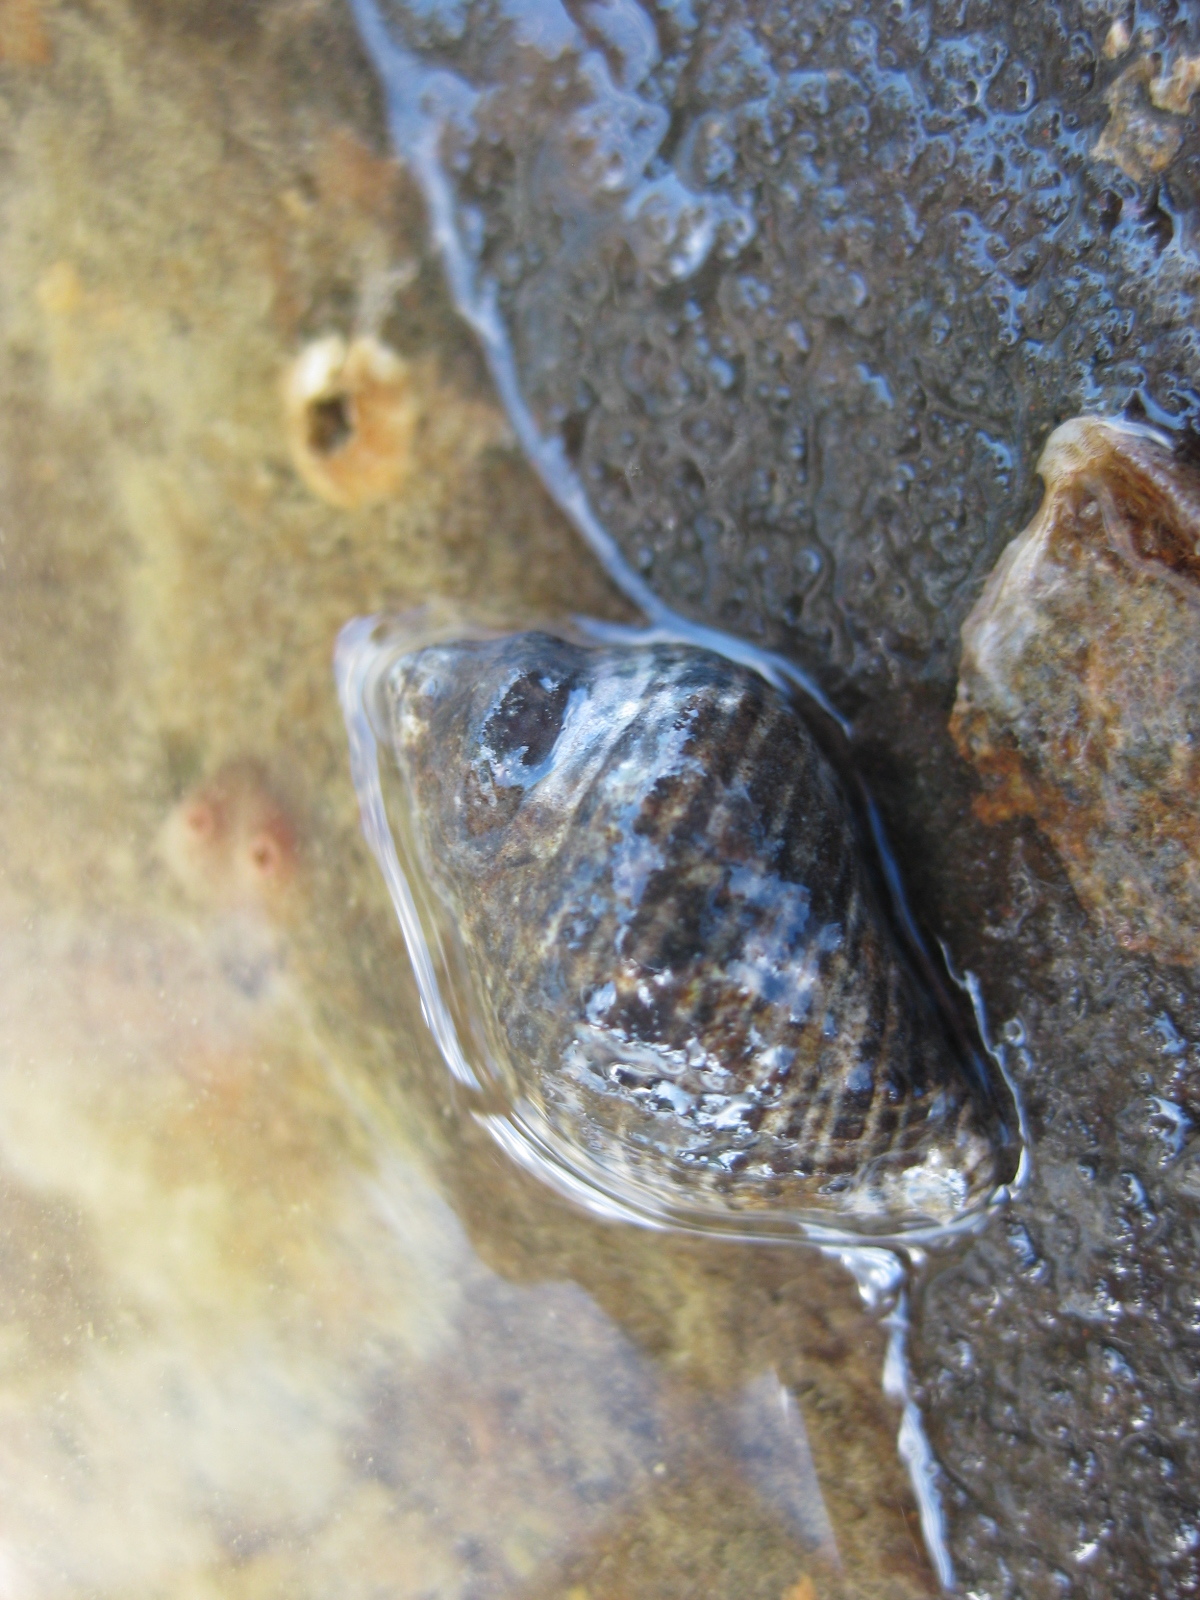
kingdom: Animalia
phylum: Mollusca
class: Gastropoda
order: Neogastropoda
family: Muricidae
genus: Haustrum
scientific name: Haustrum albomarginatum
